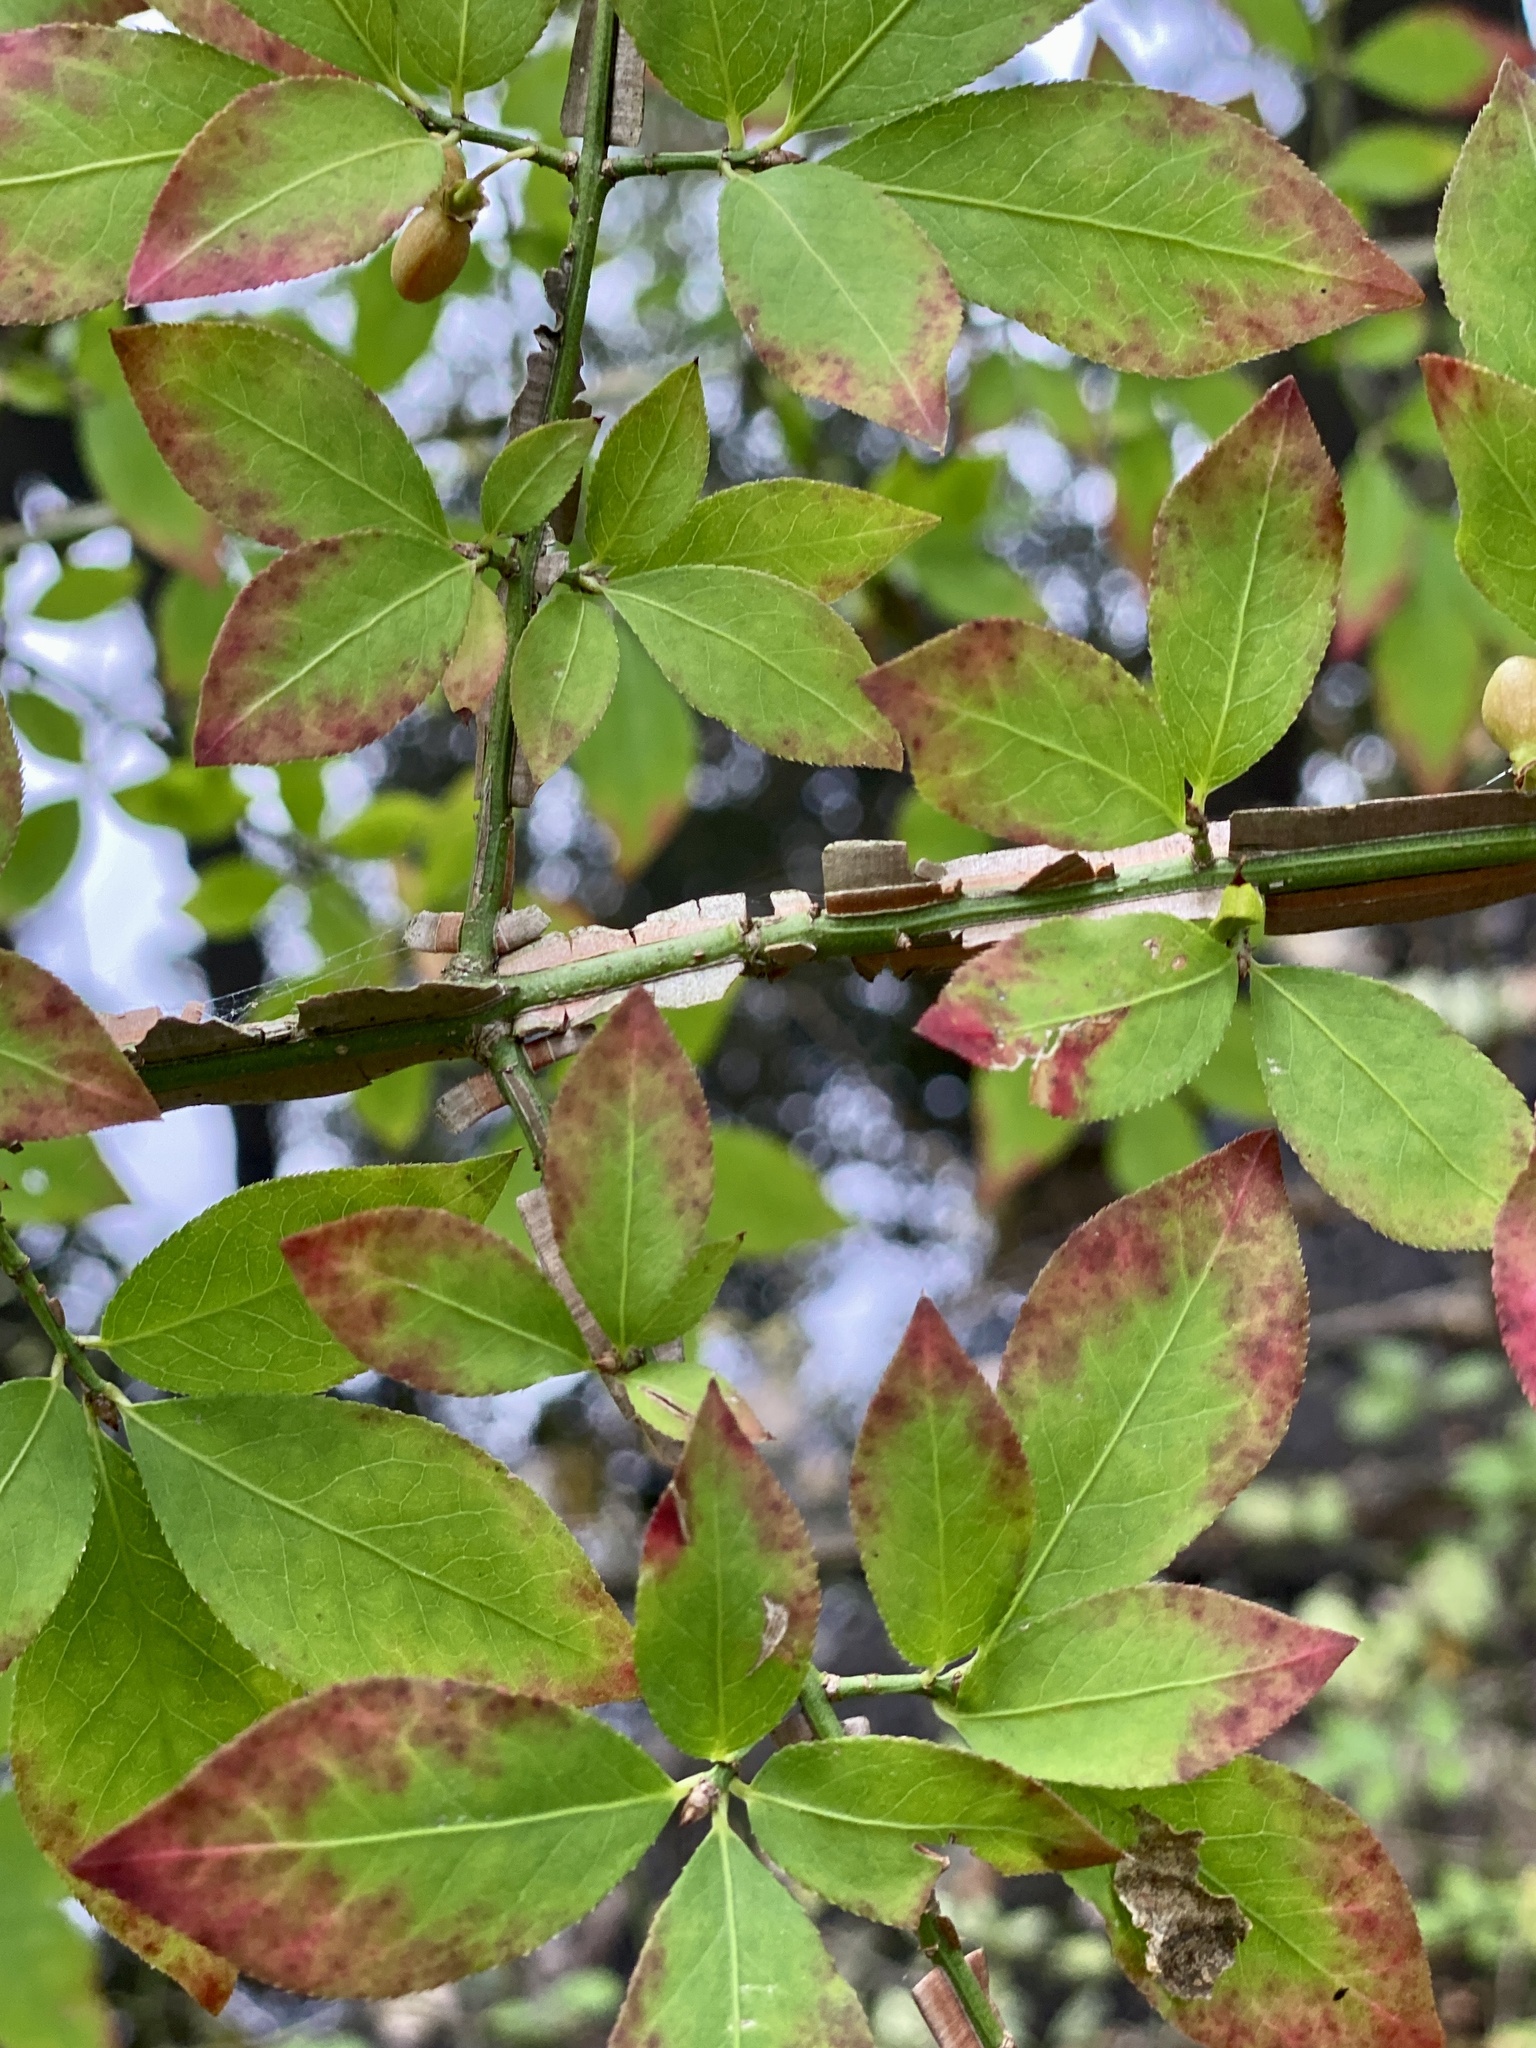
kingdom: Plantae
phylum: Tracheophyta
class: Magnoliopsida
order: Celastrales
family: Celastraceae
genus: Euonymus
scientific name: Euonymus alatus
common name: Winged euonymus
